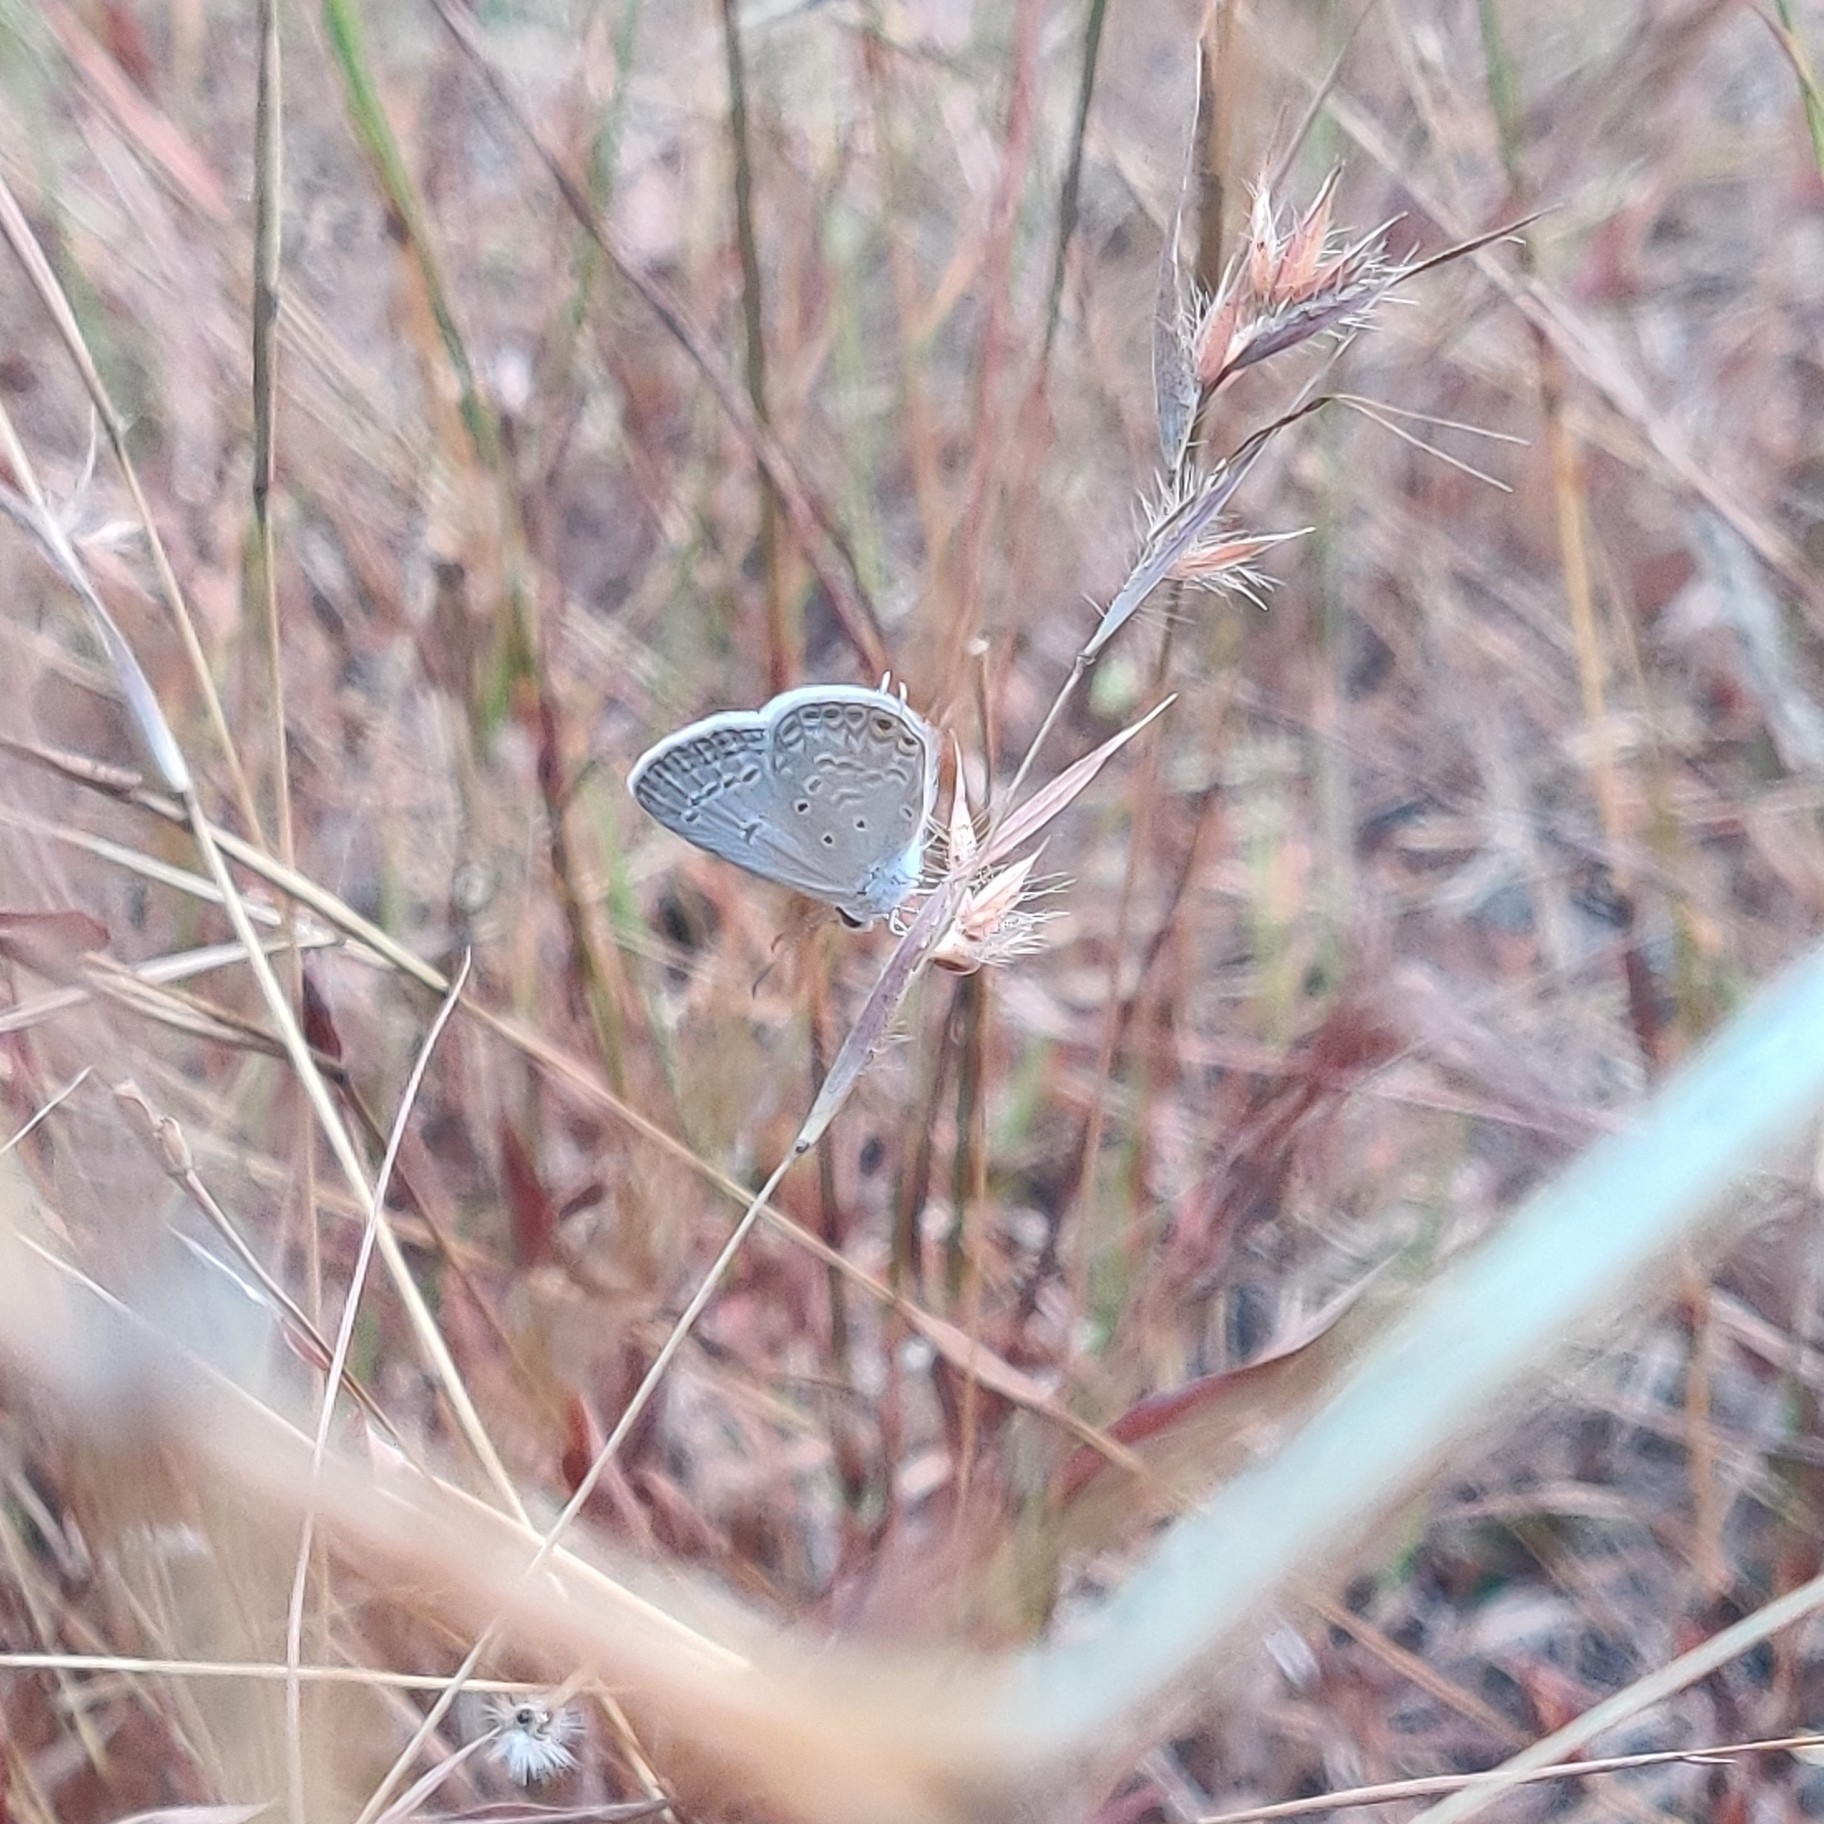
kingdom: Animalia
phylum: Arthropoda
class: Insecta
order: Lepidoptera
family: Lycaenidae
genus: Euchrysops
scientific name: Euchrysops cnejus
